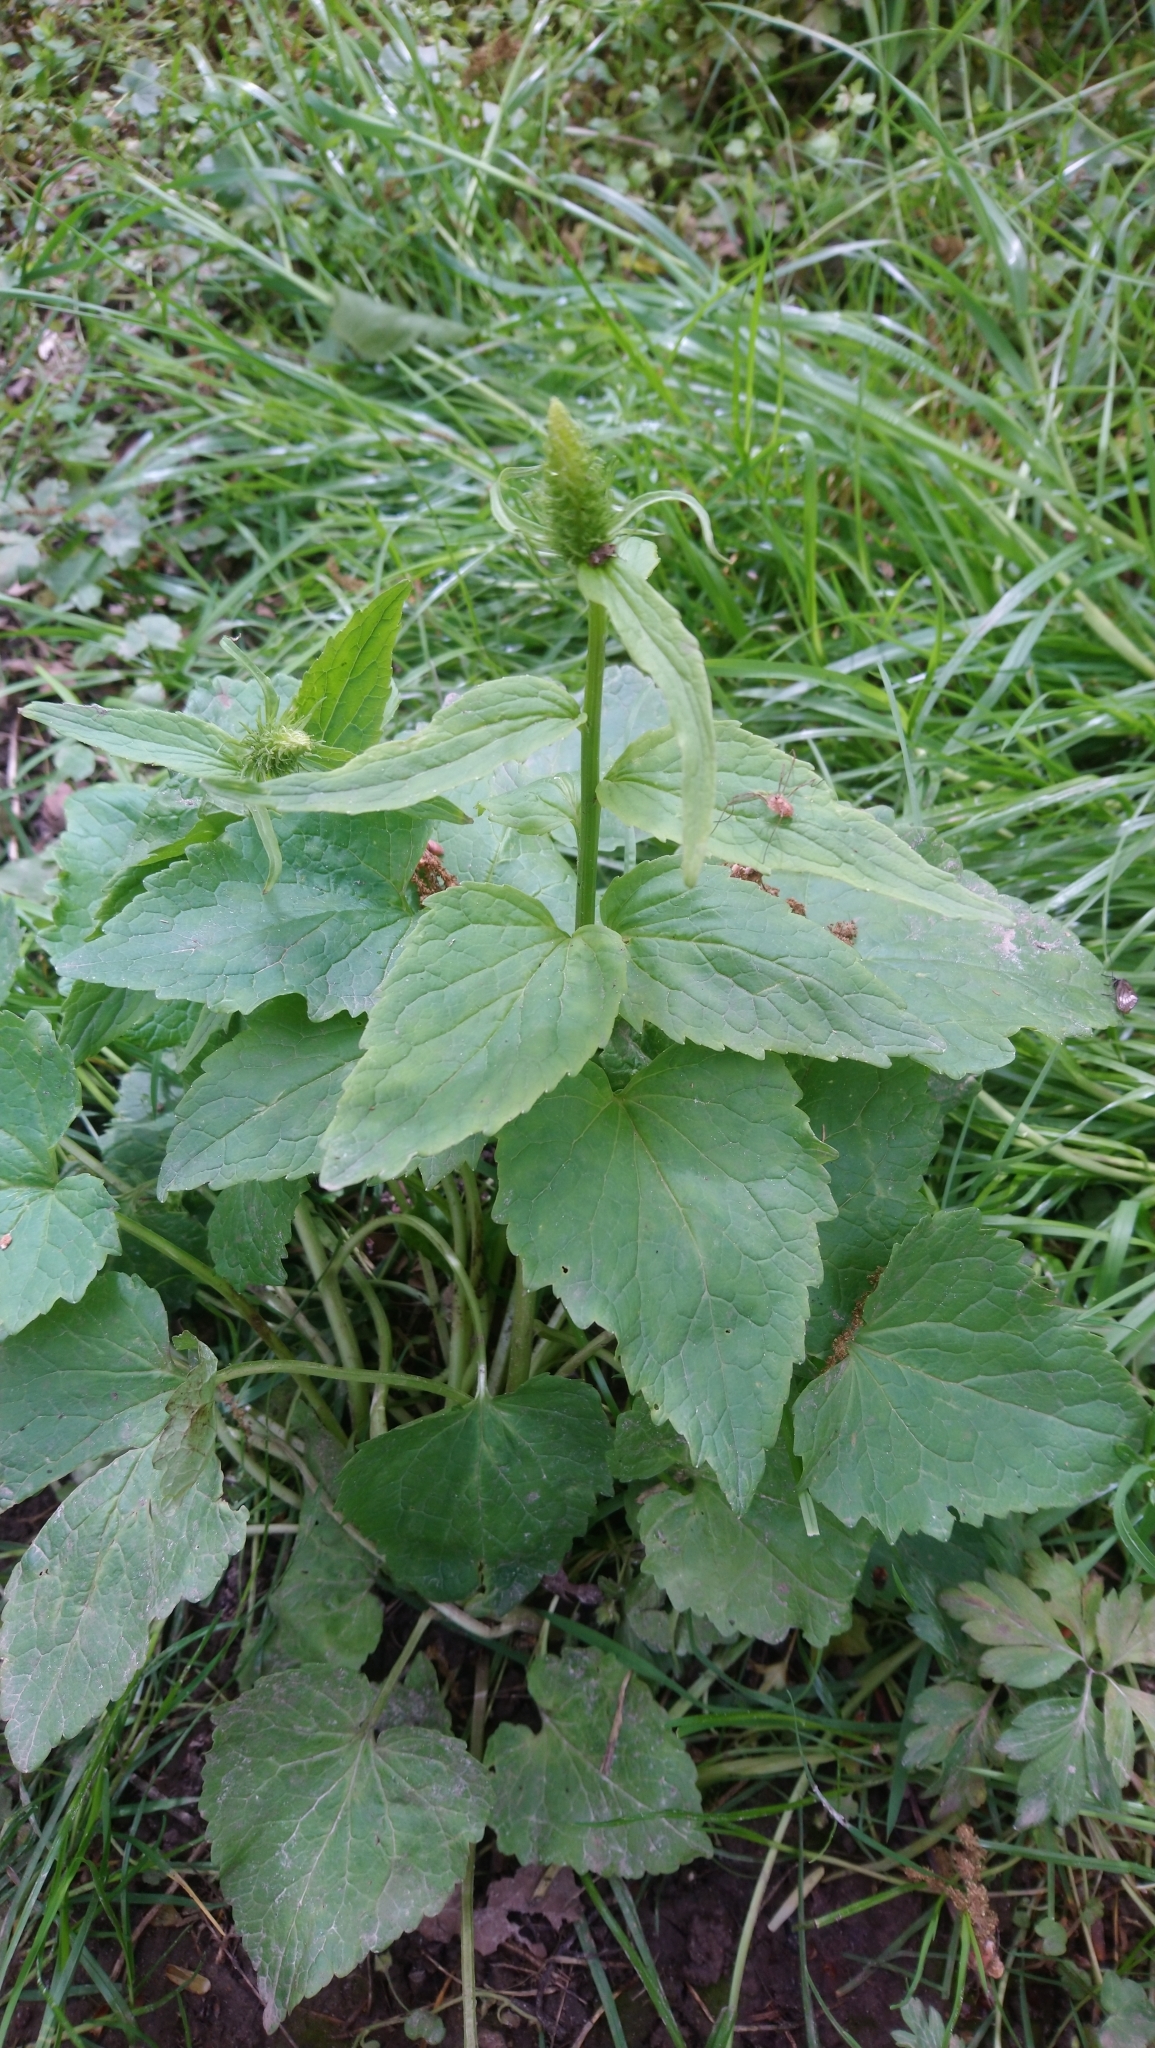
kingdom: Plantae
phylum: Tracheophyta
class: Magnoliopsida
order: Asterales
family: Campanulaceae
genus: Phyteuma
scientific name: Phyteuma spicatum
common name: Spiked rampion
